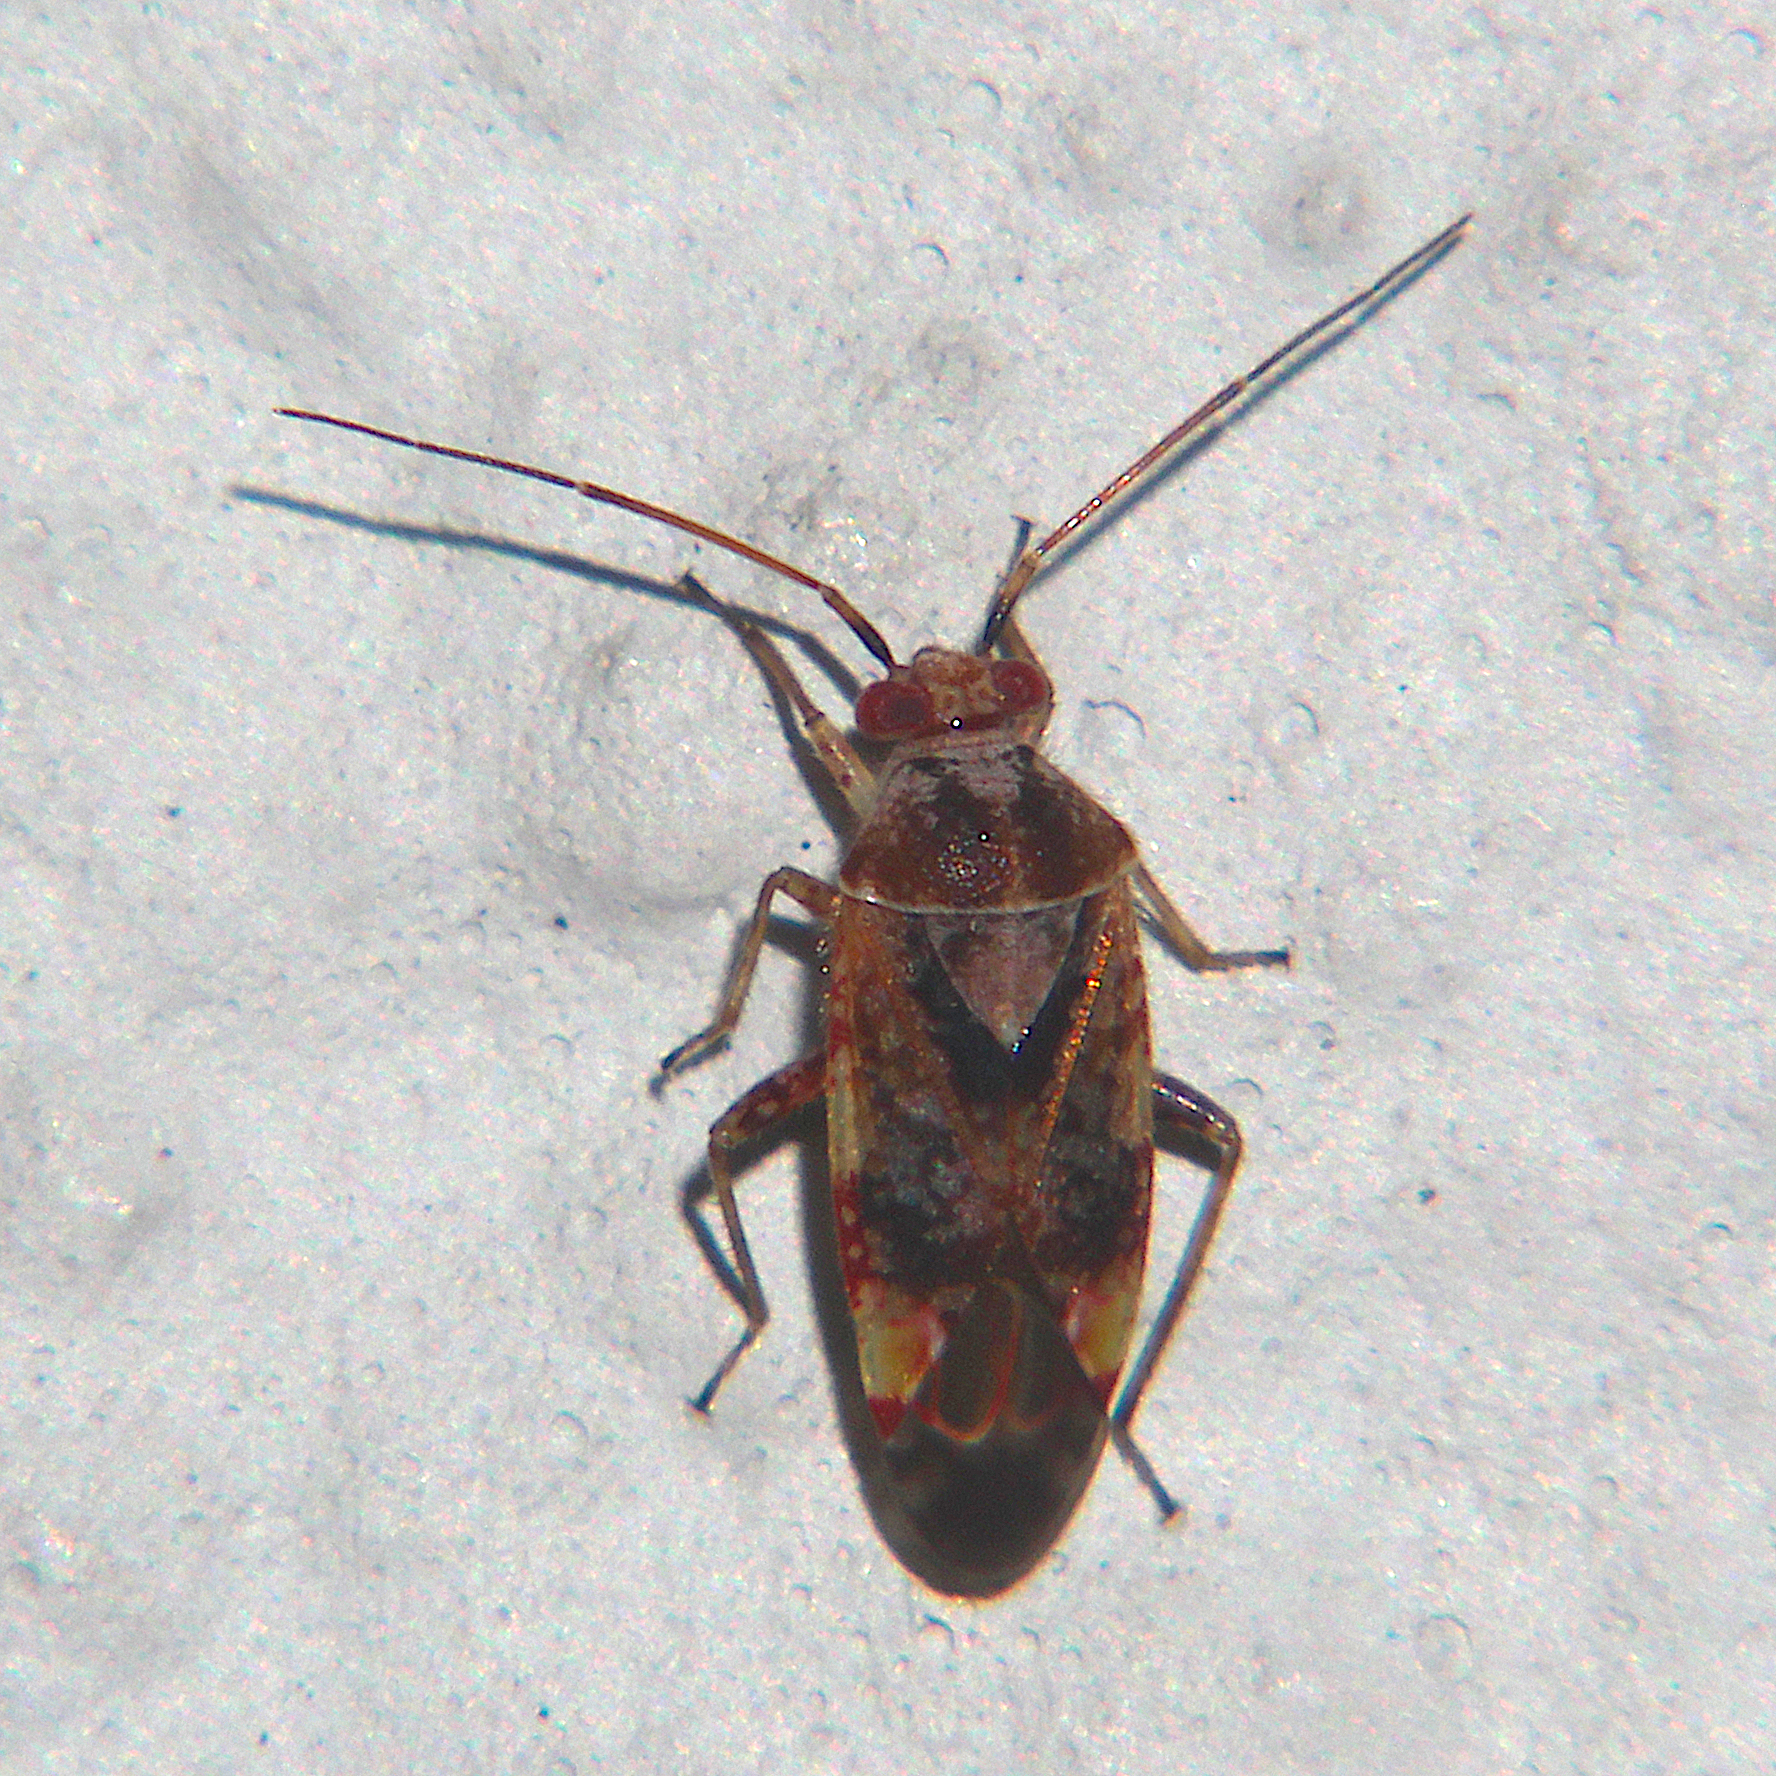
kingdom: Animalia
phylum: Arthropoda
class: Insecta
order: Hemiptera
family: Miridae
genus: Tinginotum
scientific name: Tinginotum minutum
